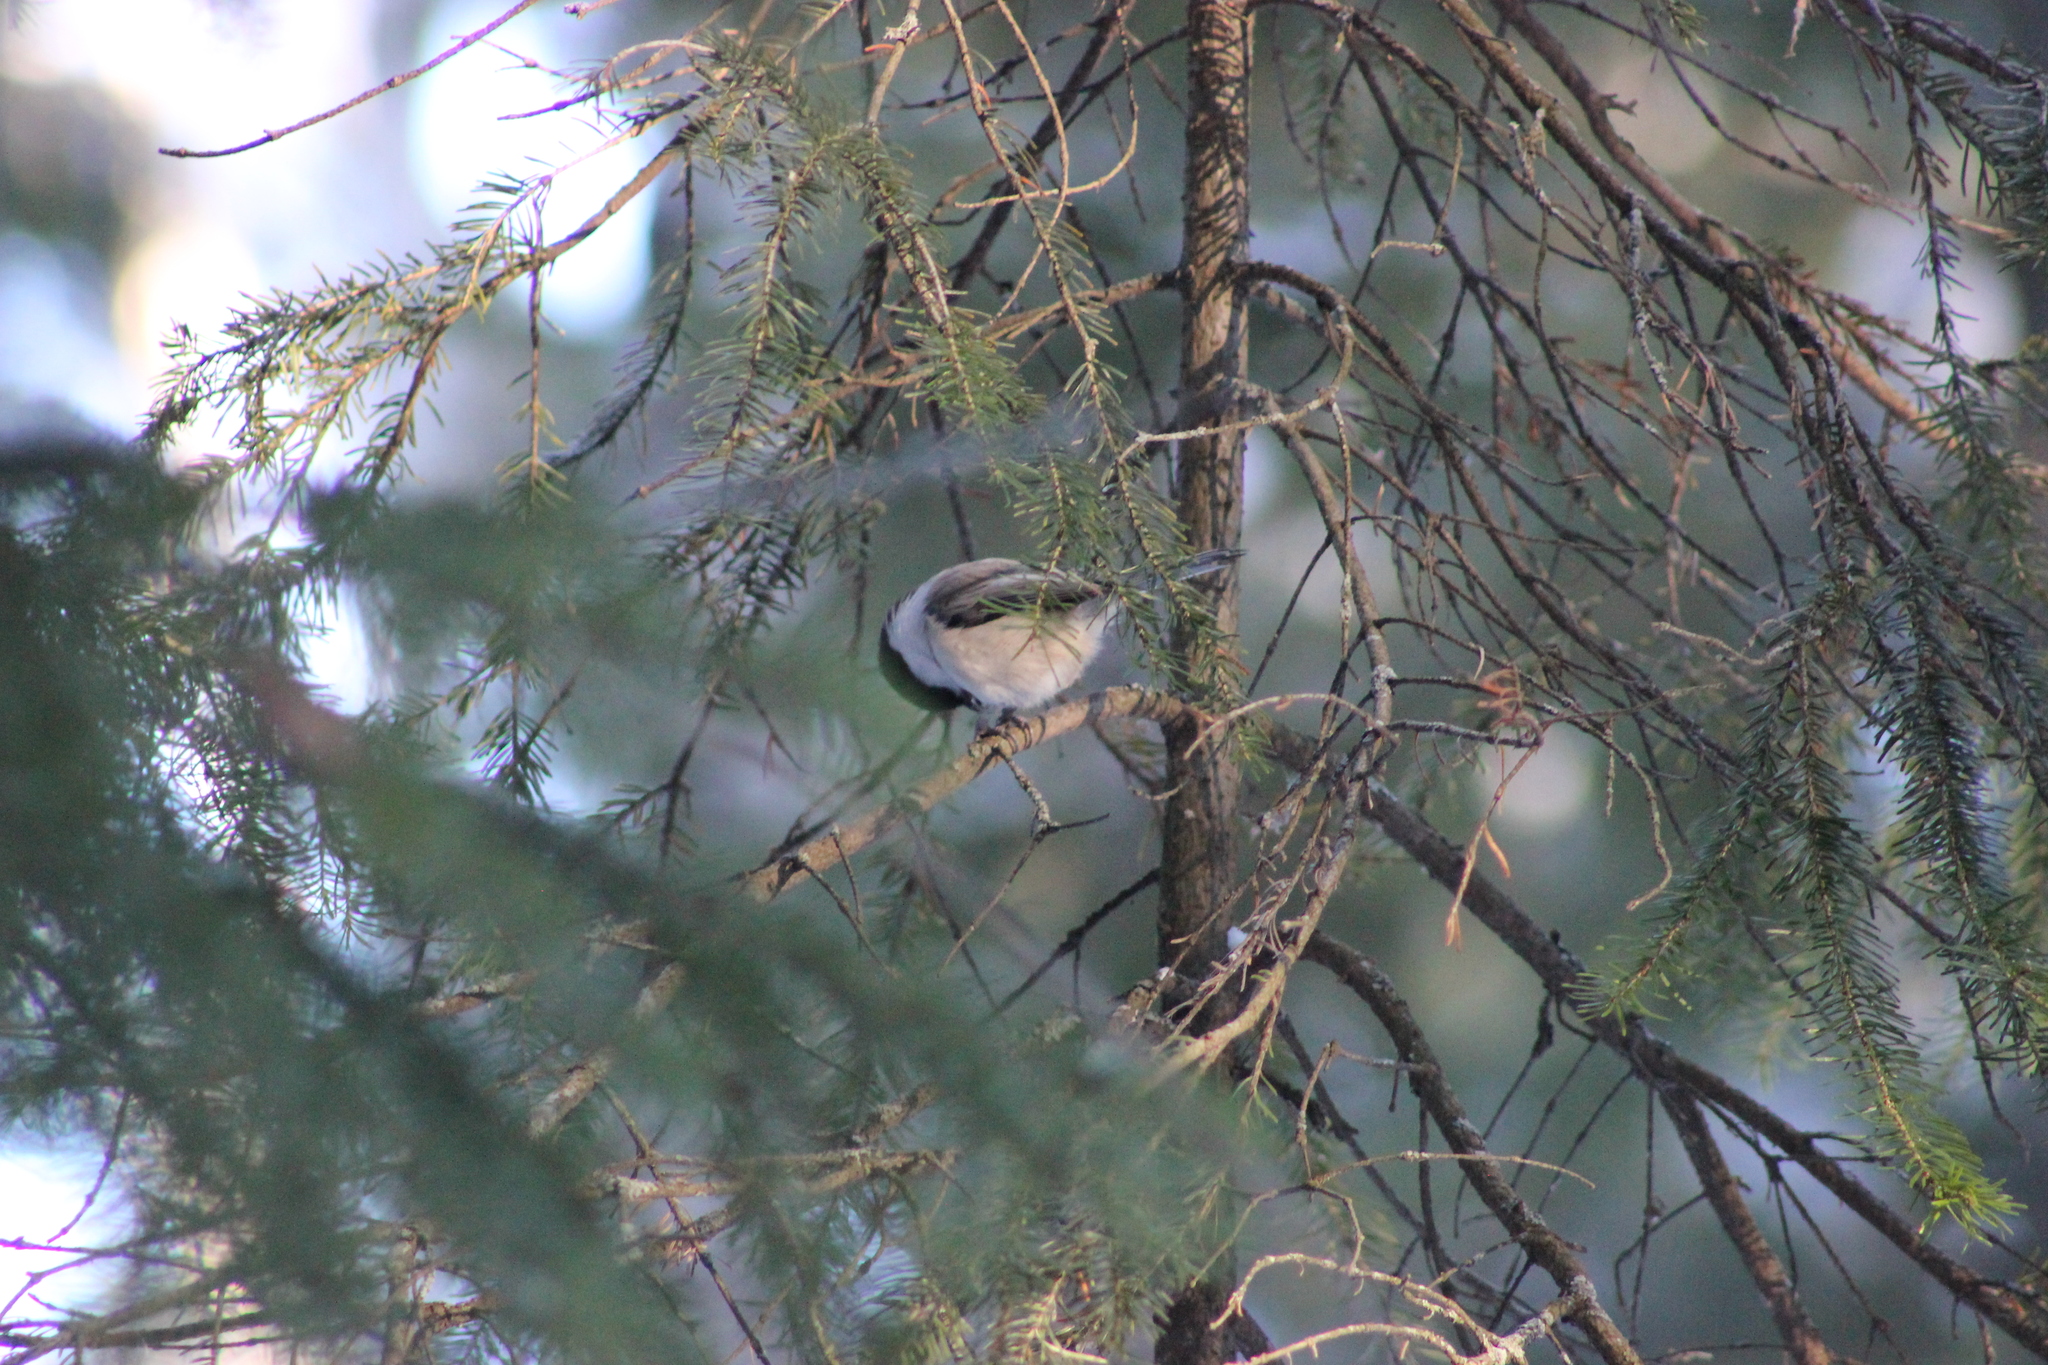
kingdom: Animalia
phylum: Chordata
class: Aves
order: Passeriformes
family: Paridae
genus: Poecile
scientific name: Poecile montanus
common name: Willow tit
